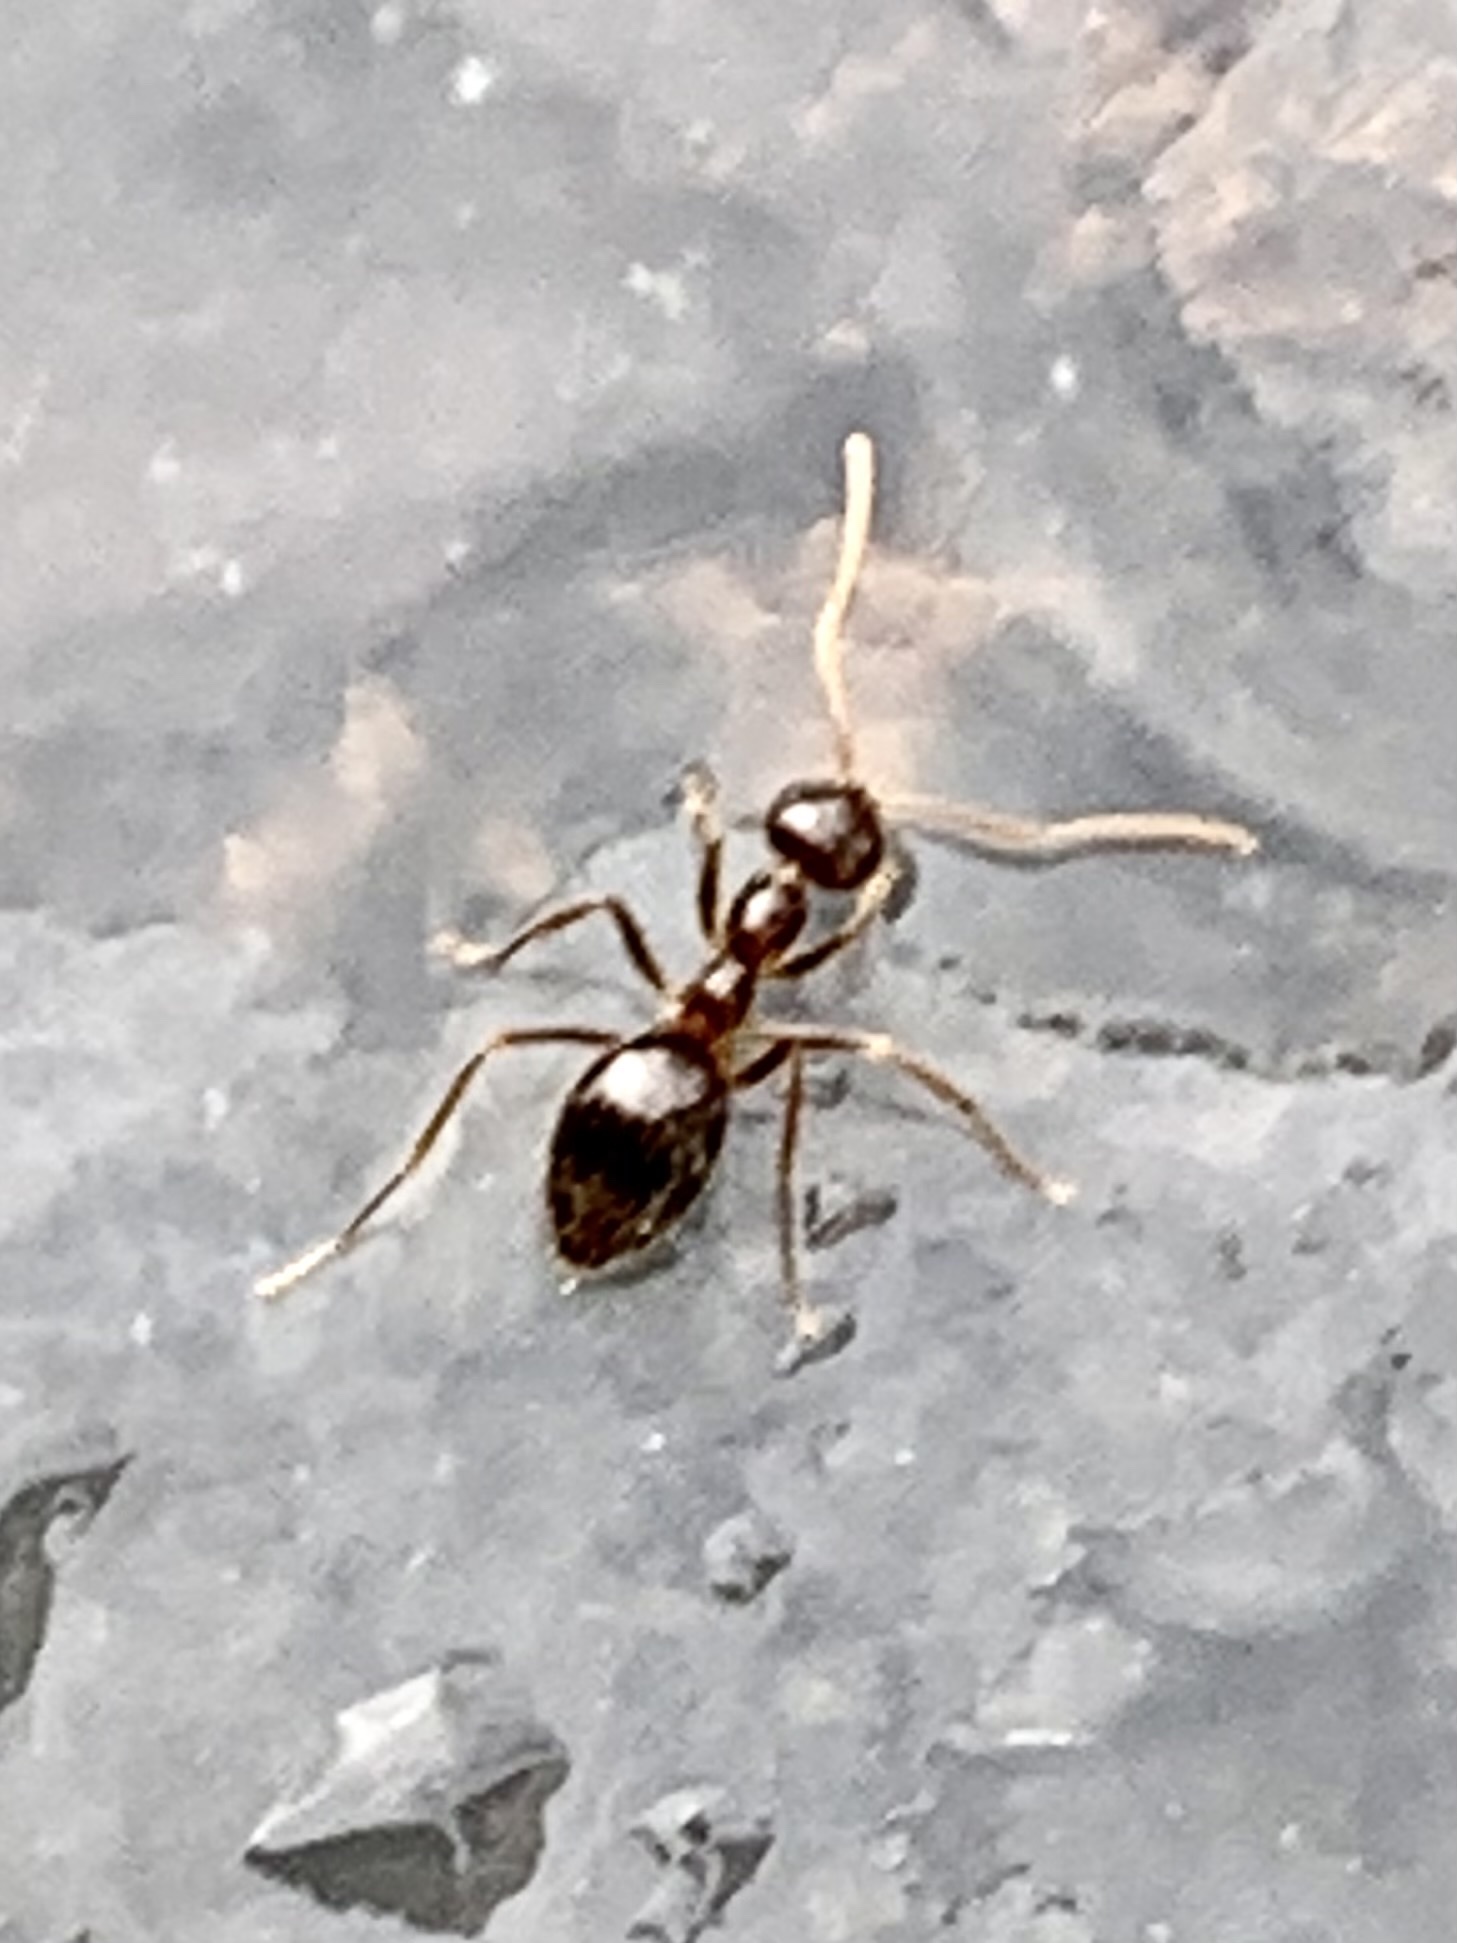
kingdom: Animalia
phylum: Arthropoda
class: Insecta
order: Hymenoptera
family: Formicidae
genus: Prenolepis
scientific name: Prenolepis imparis
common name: Small honey ant
